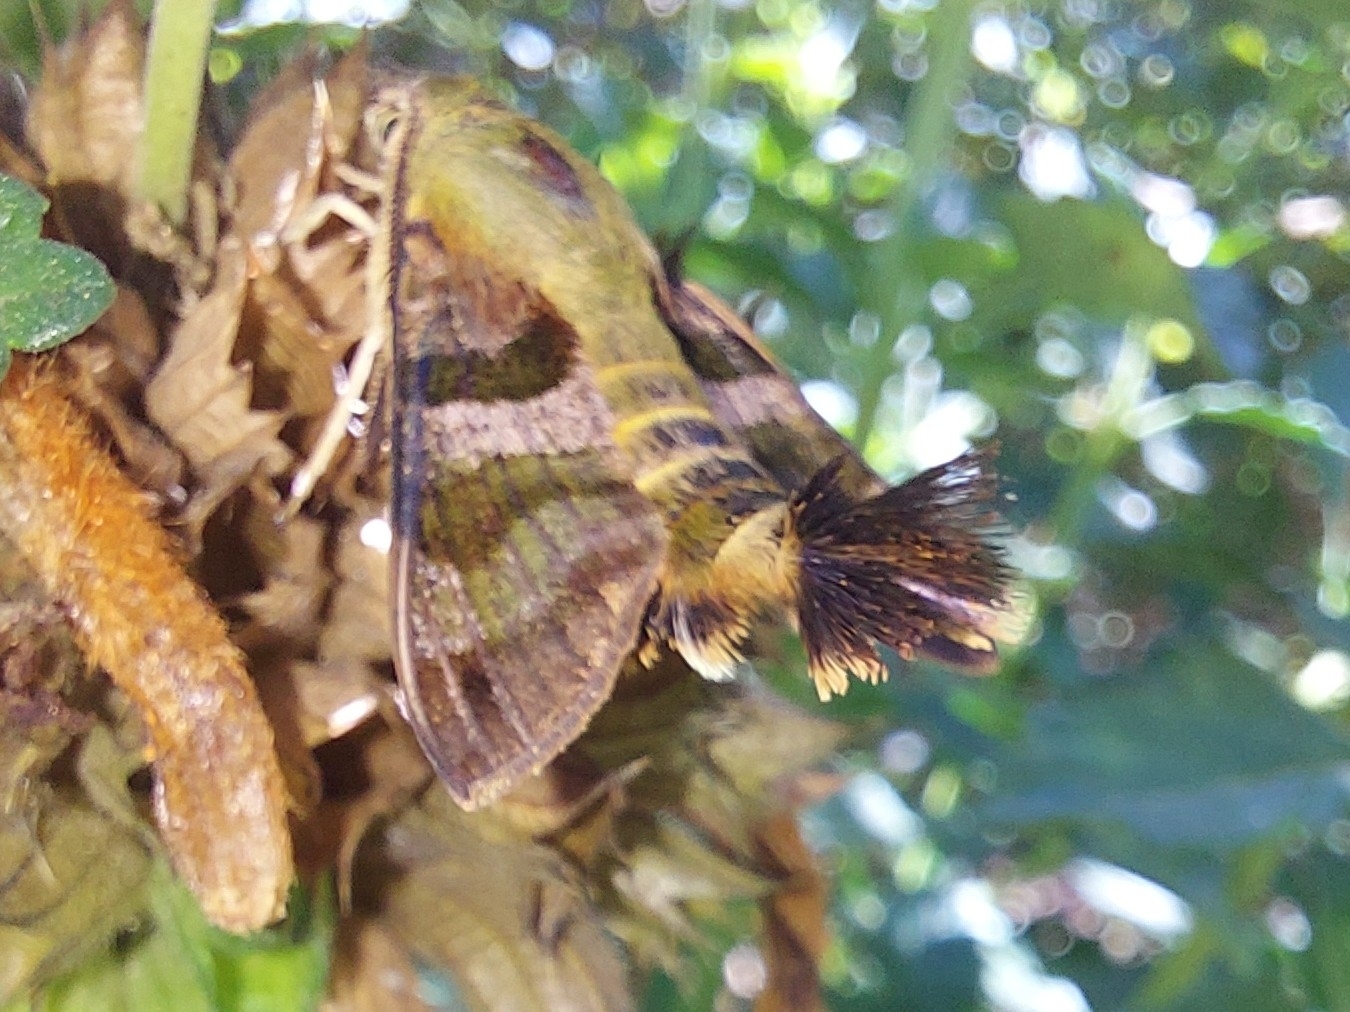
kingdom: Animalia
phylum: Arthropoda
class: Insecta
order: Lepidoptera
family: Sphingidae
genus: Macroglossum
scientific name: Macroglossum trochilus
